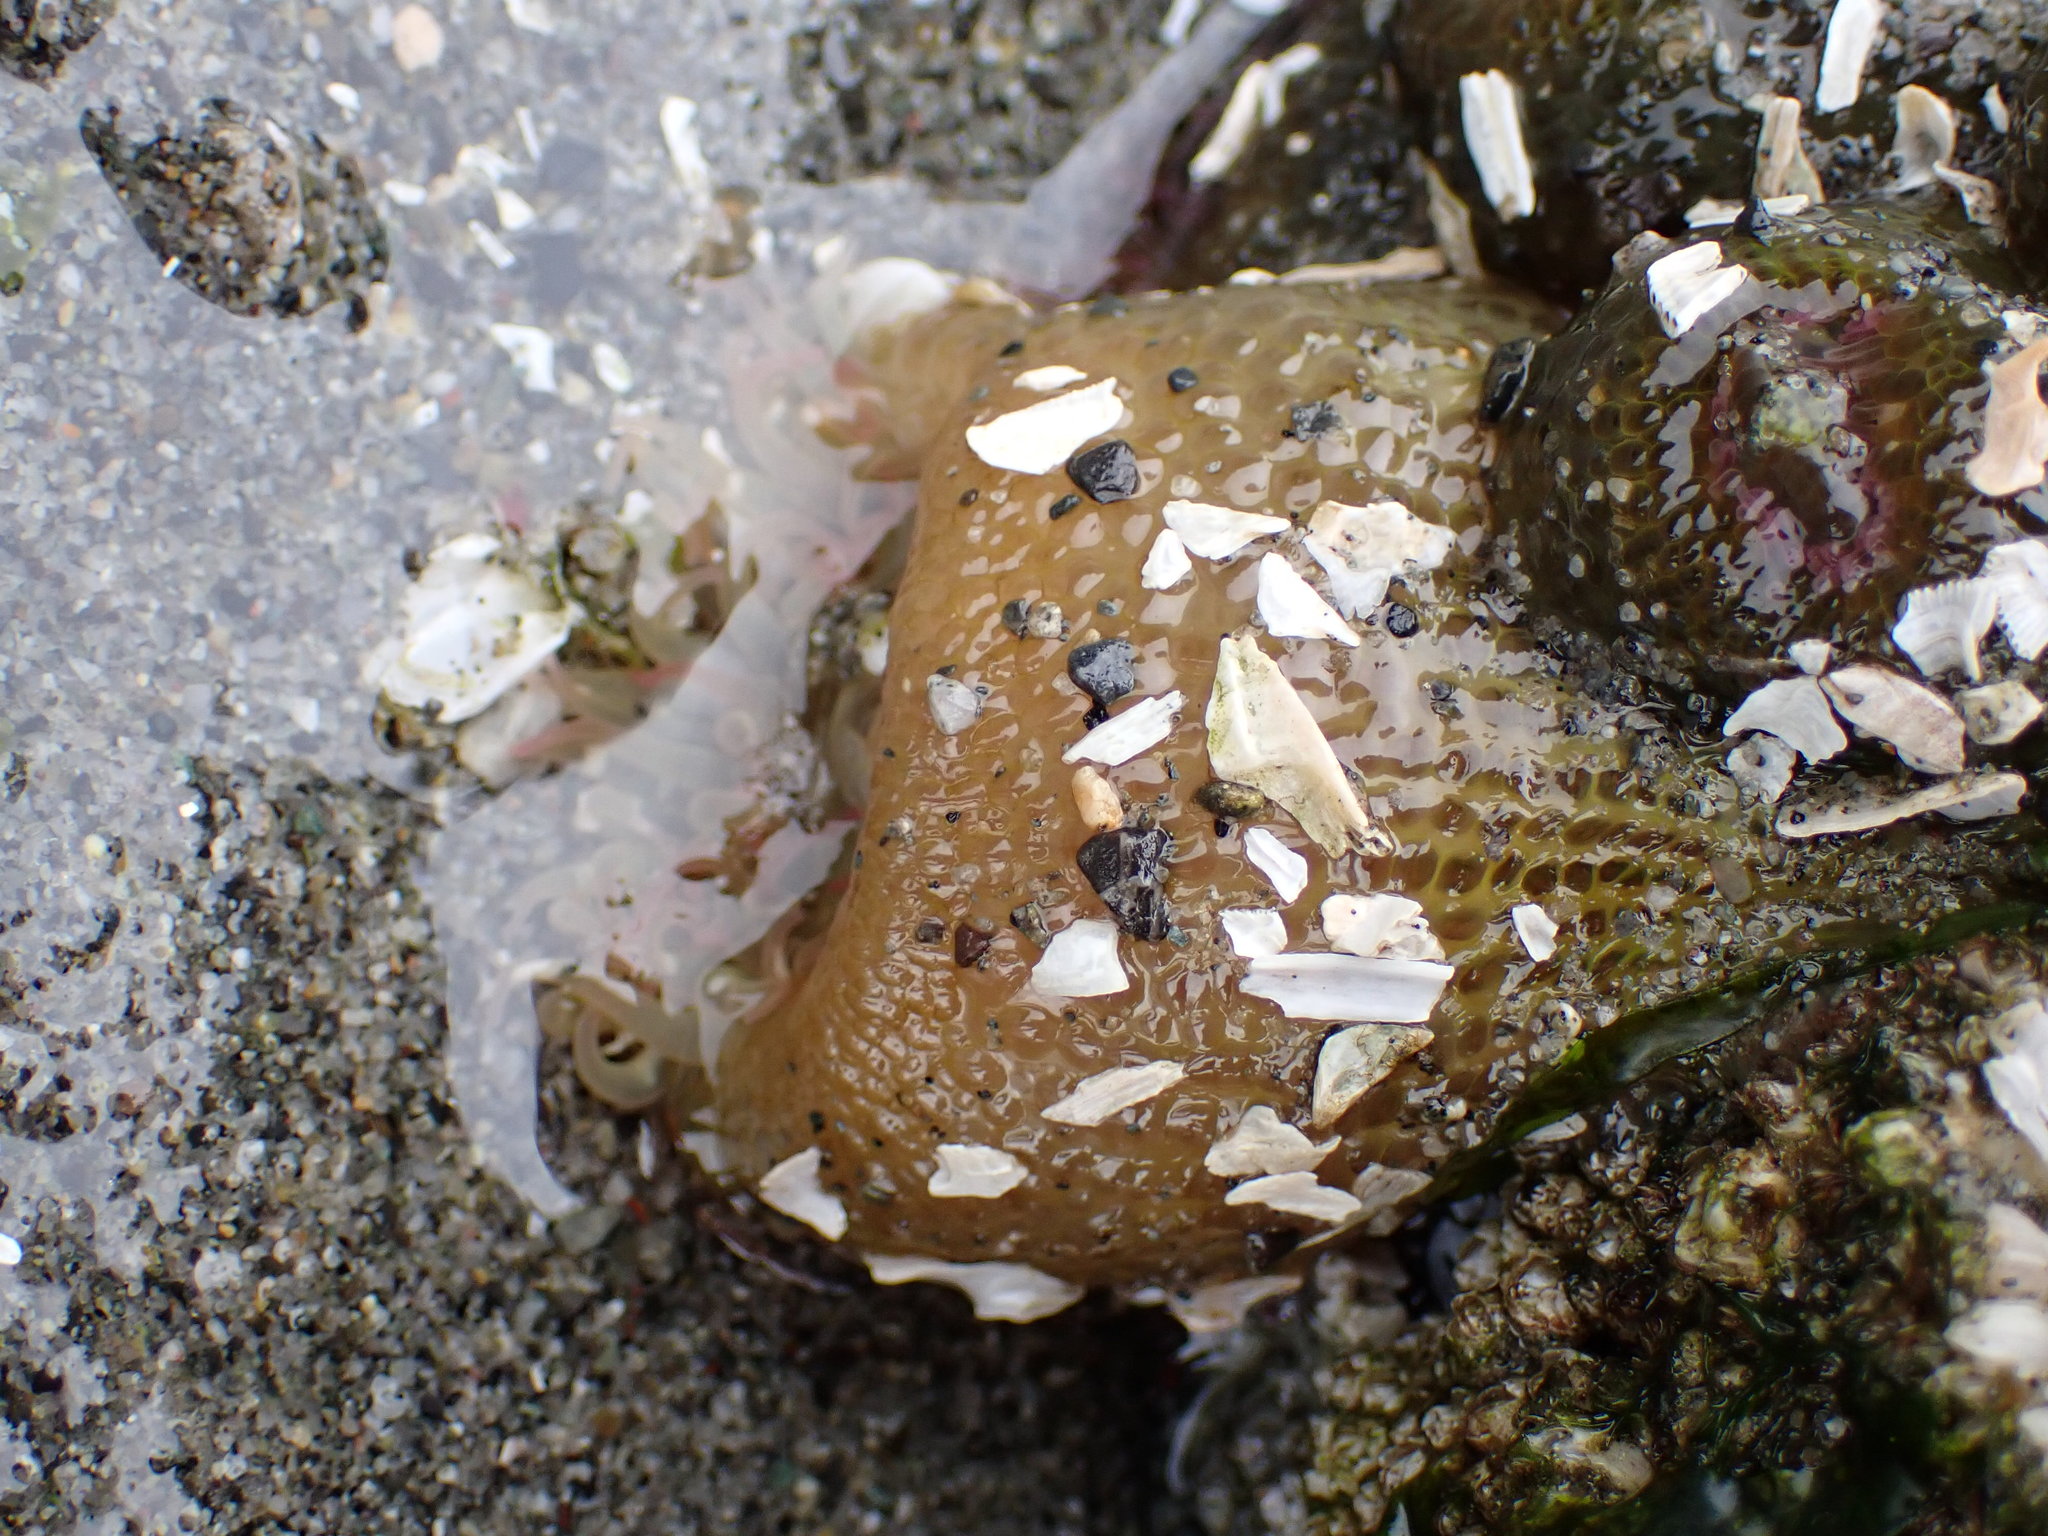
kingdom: Animalia
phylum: Cnidaria
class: Anthozoa
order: Actiniaria
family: Actiniidae
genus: Anthopleura
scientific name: Anthopleura elegantissima
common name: Clonal anemone
